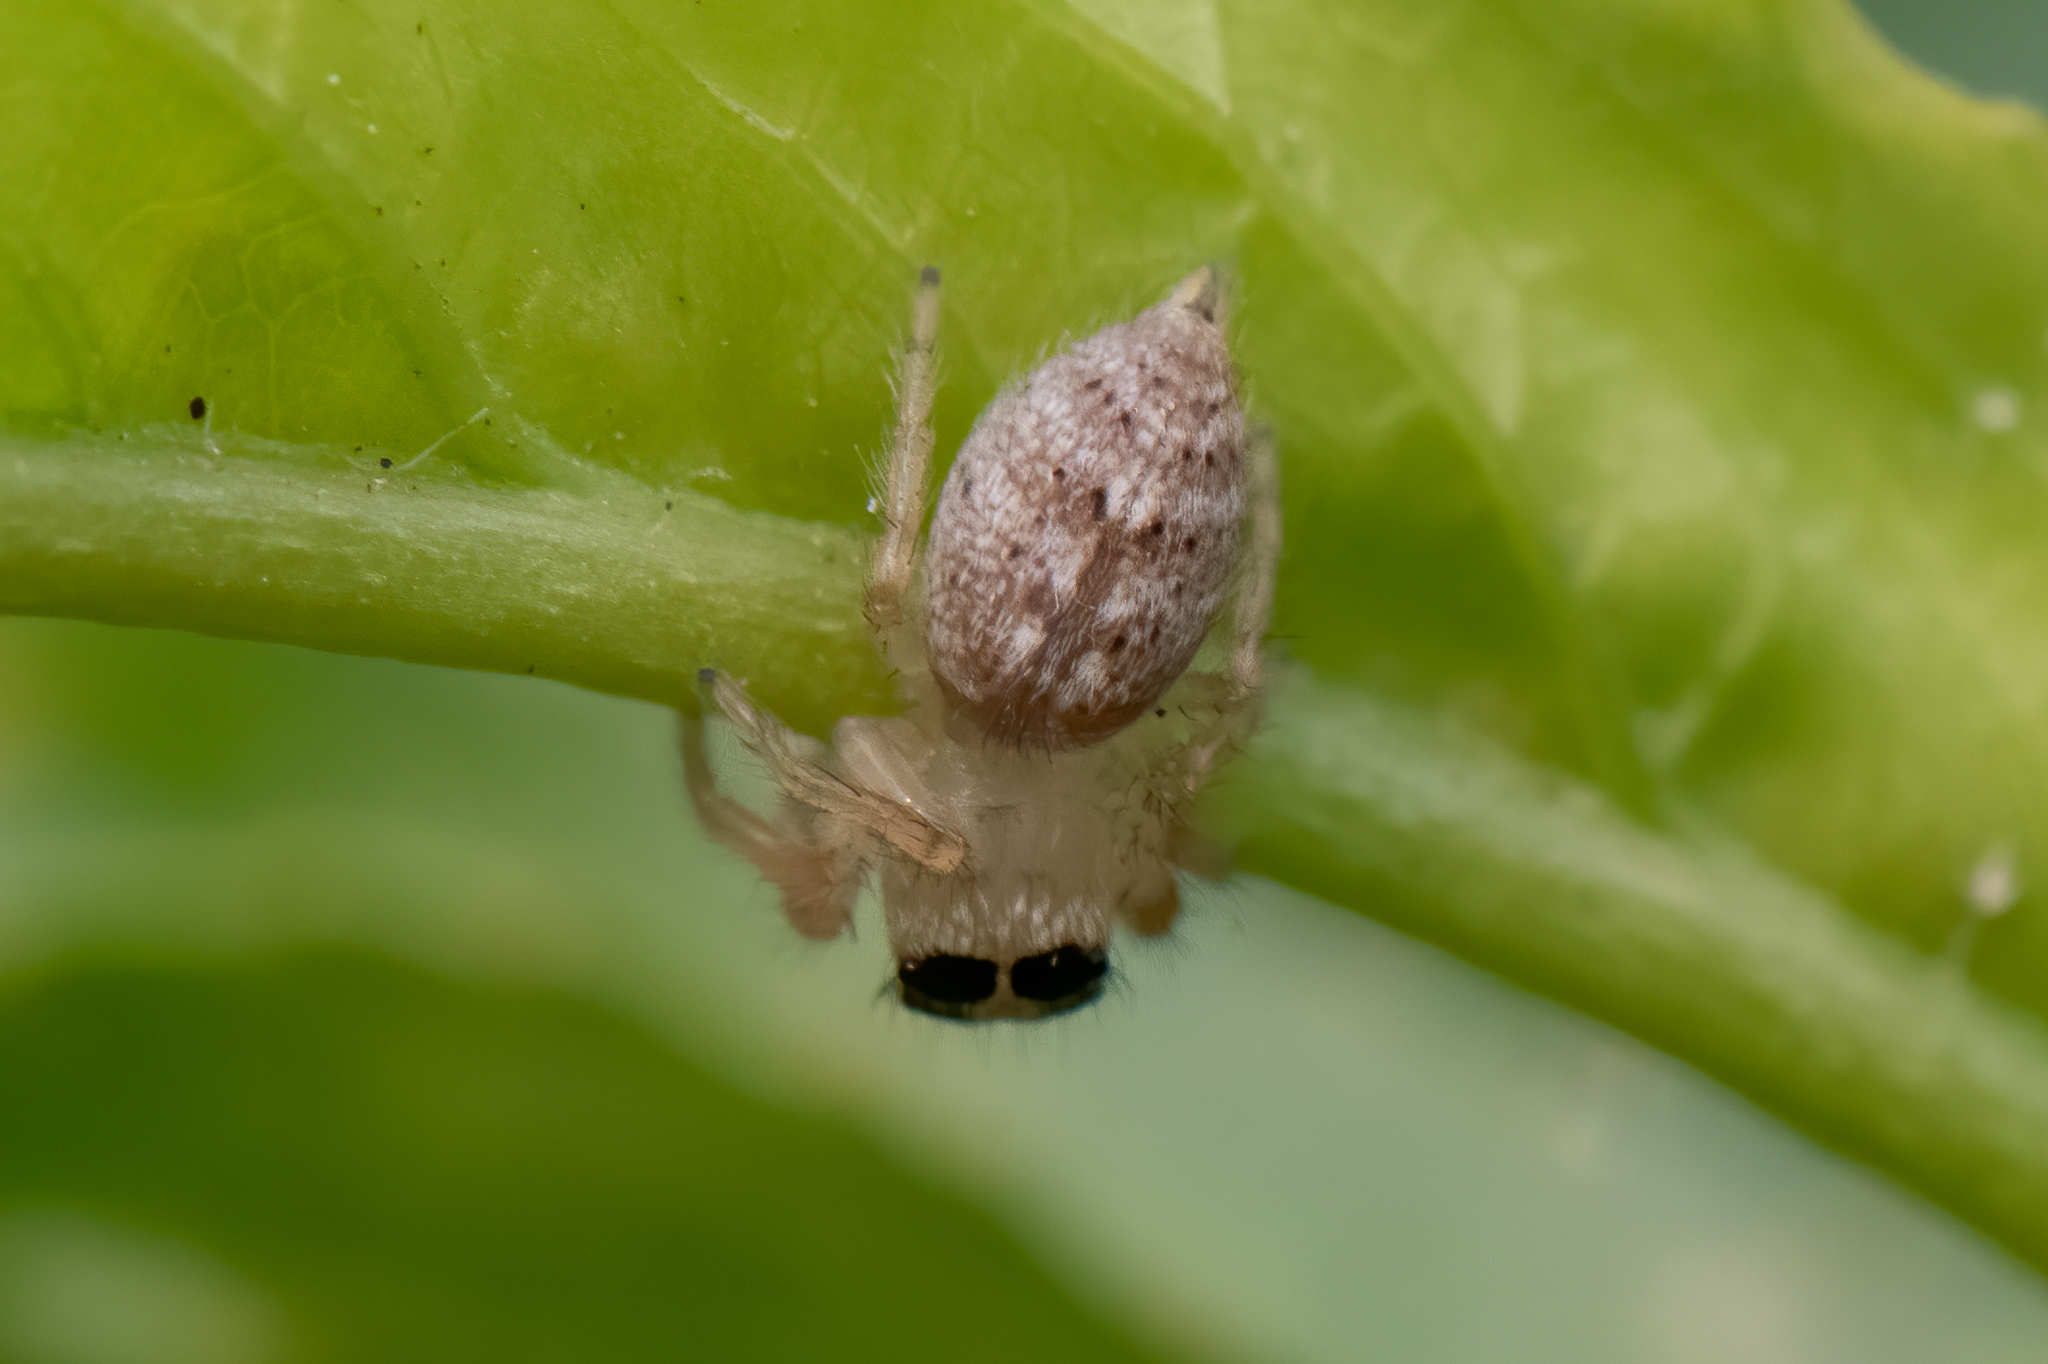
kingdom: Animalia
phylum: Arthropoda
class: Arachnida
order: Araneae
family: Salticidae
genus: Colonus
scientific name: Colonus hesperus
